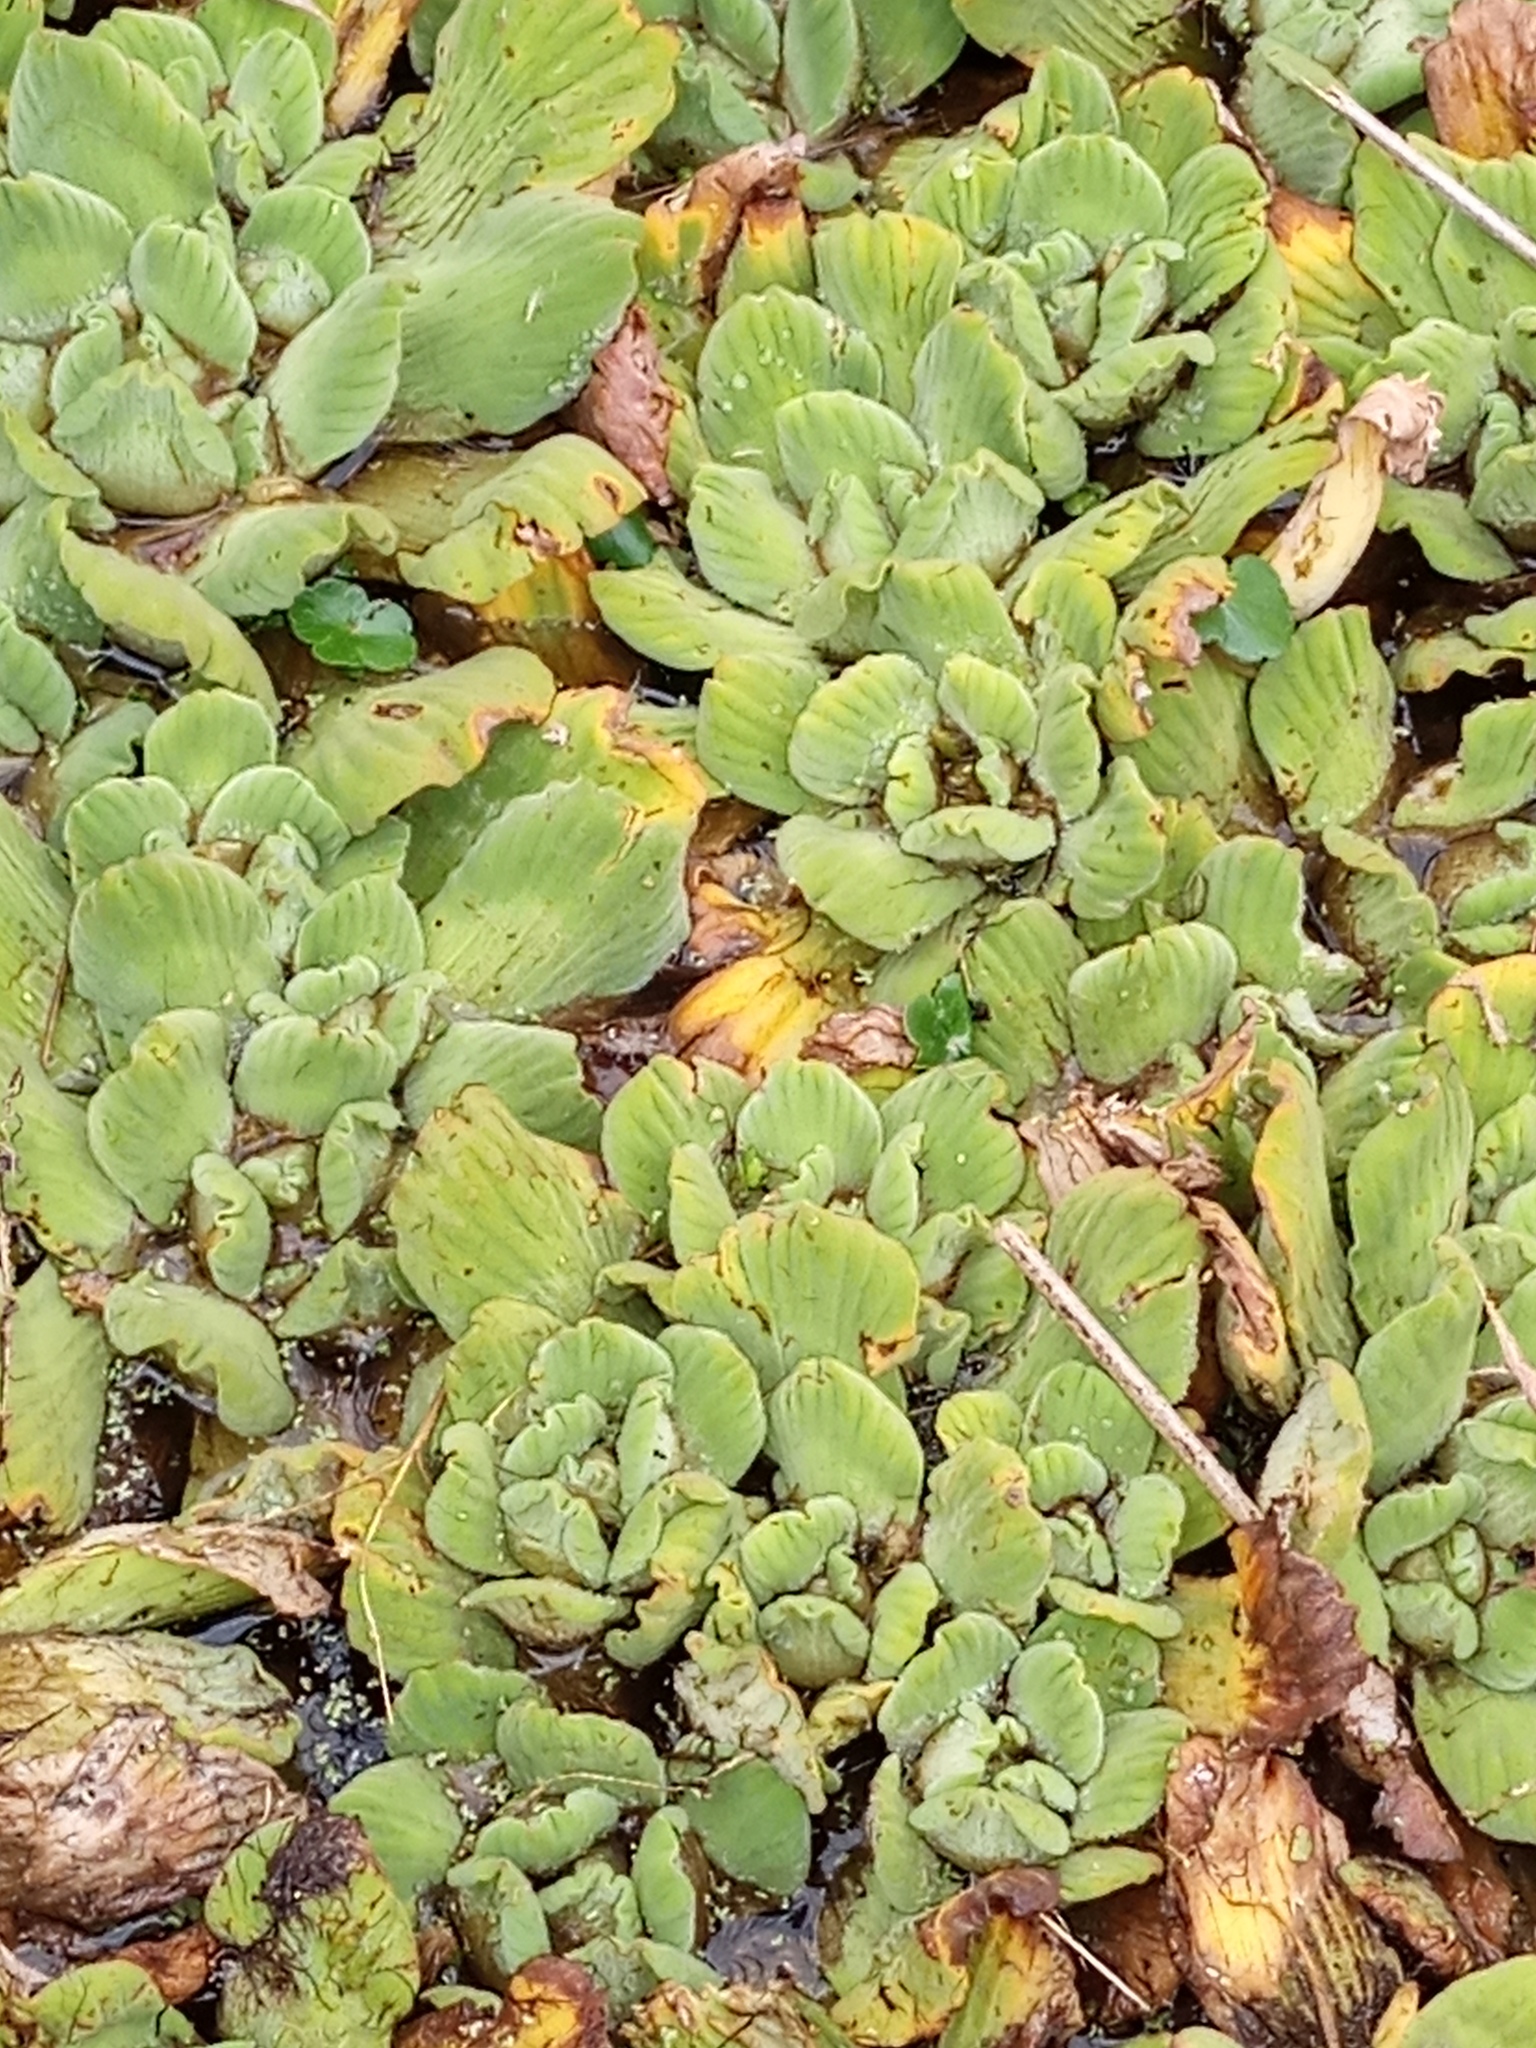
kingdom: Plantae
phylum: Tracheophyta
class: Liliopsida
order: Alismatales
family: Araceae
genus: Pistia
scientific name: Pistia stratiotes
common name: Water lettuce
